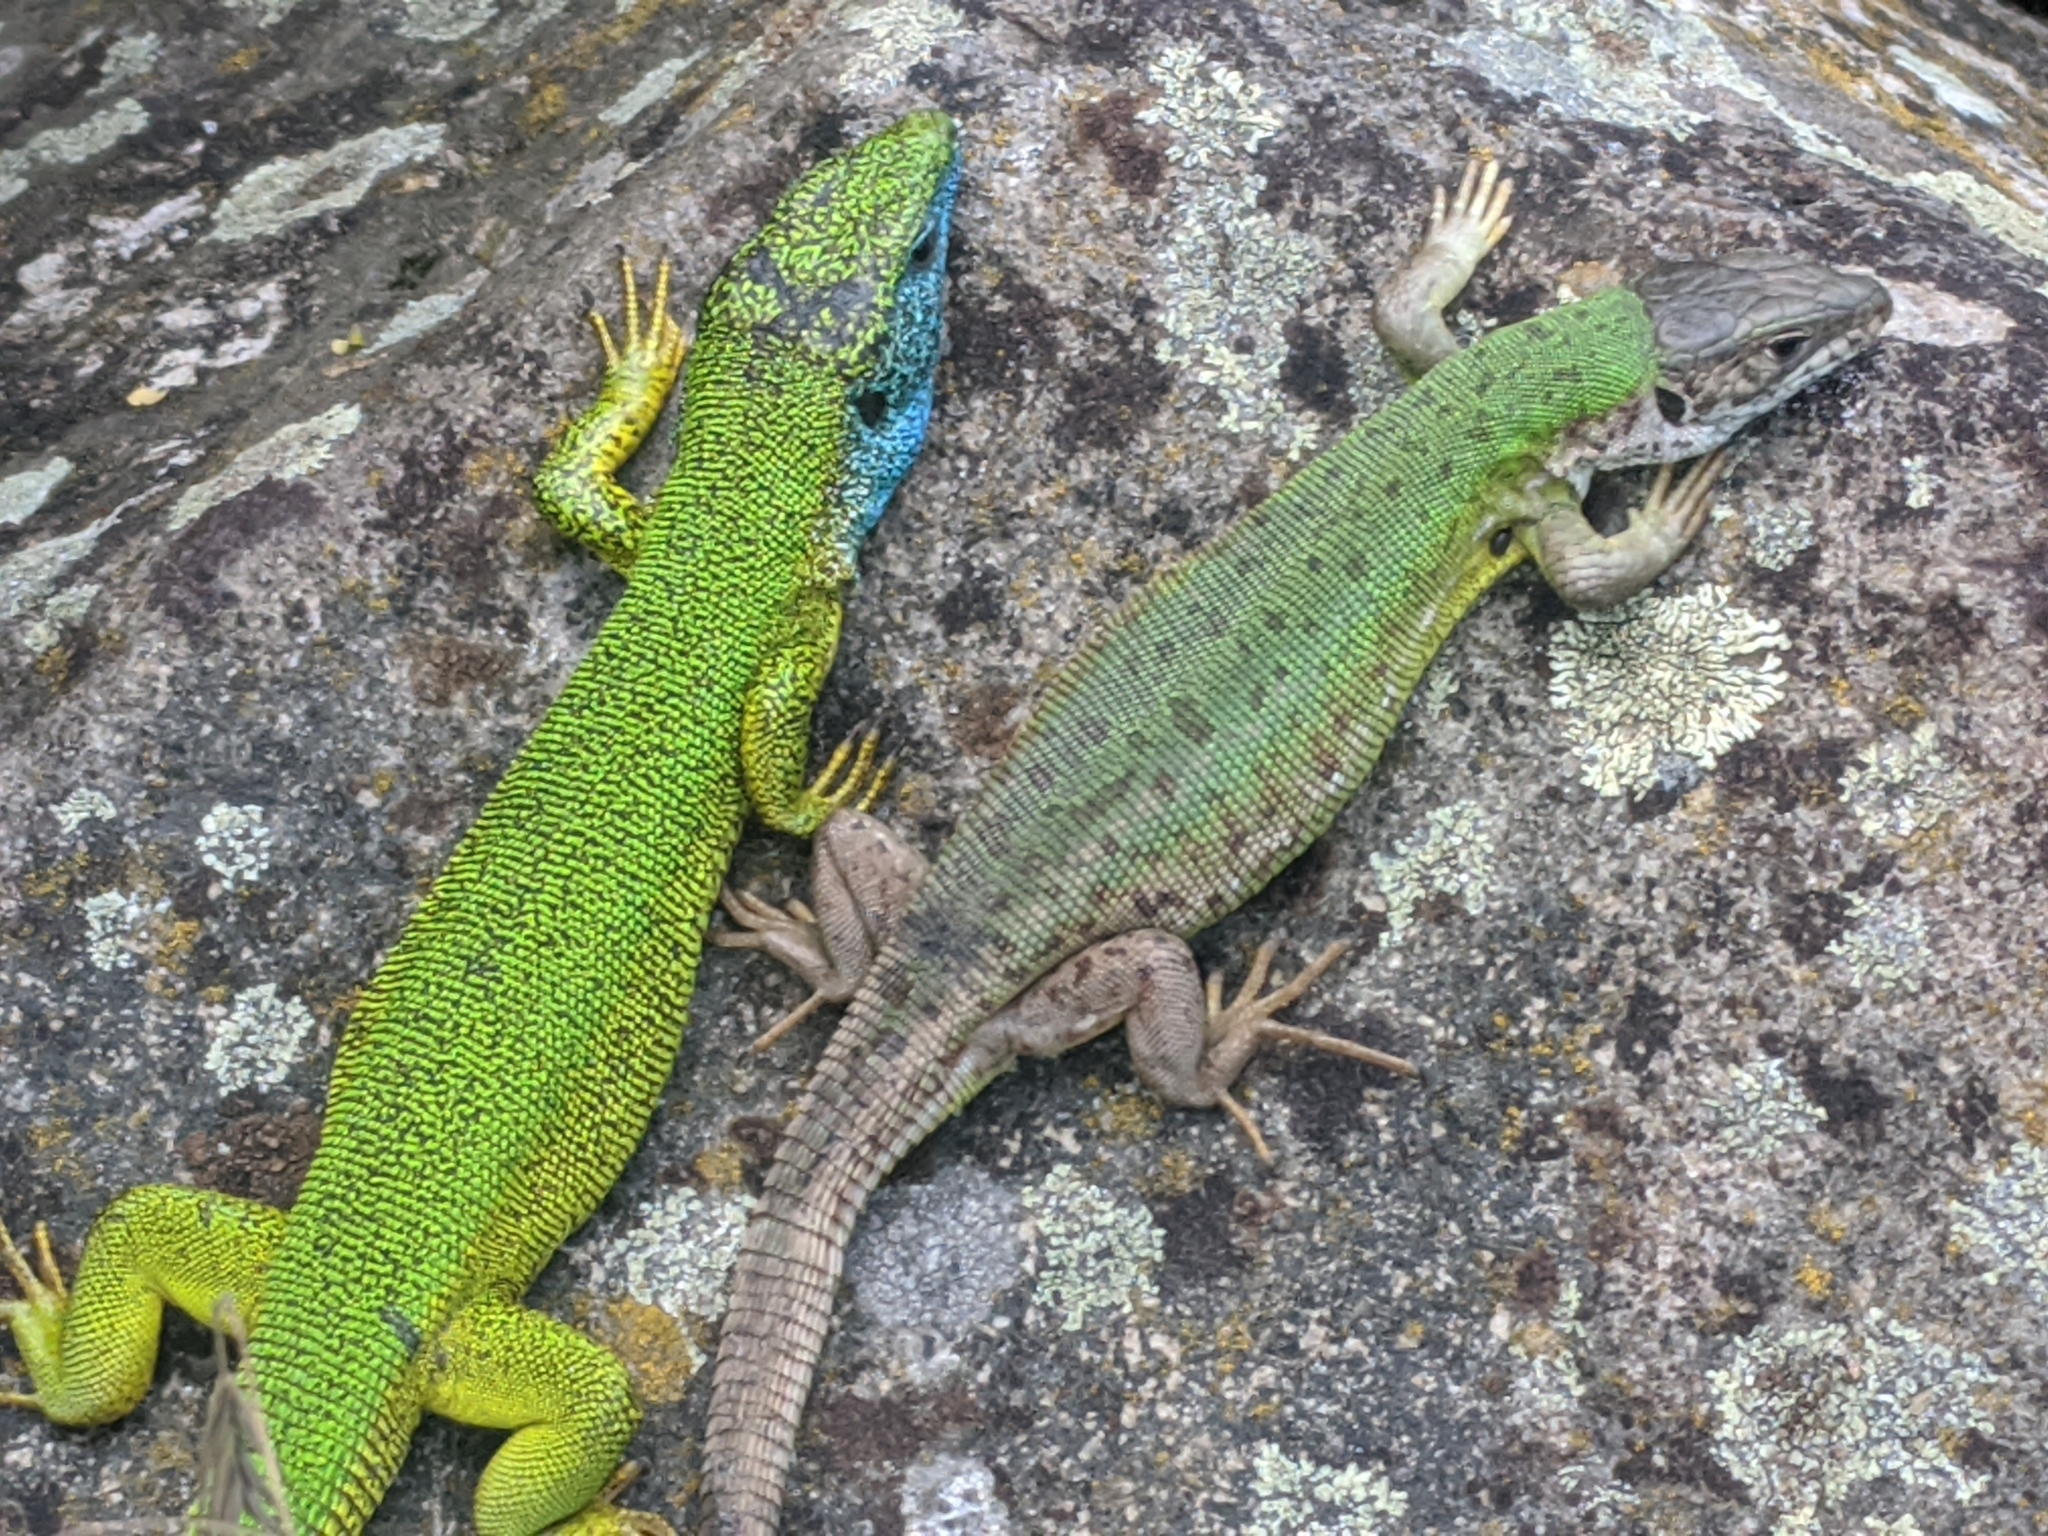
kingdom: Animalia
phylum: Chordata
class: Squamata
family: Lacertidae
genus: Lacerta
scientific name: Lacerta viridis
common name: European green lizard
